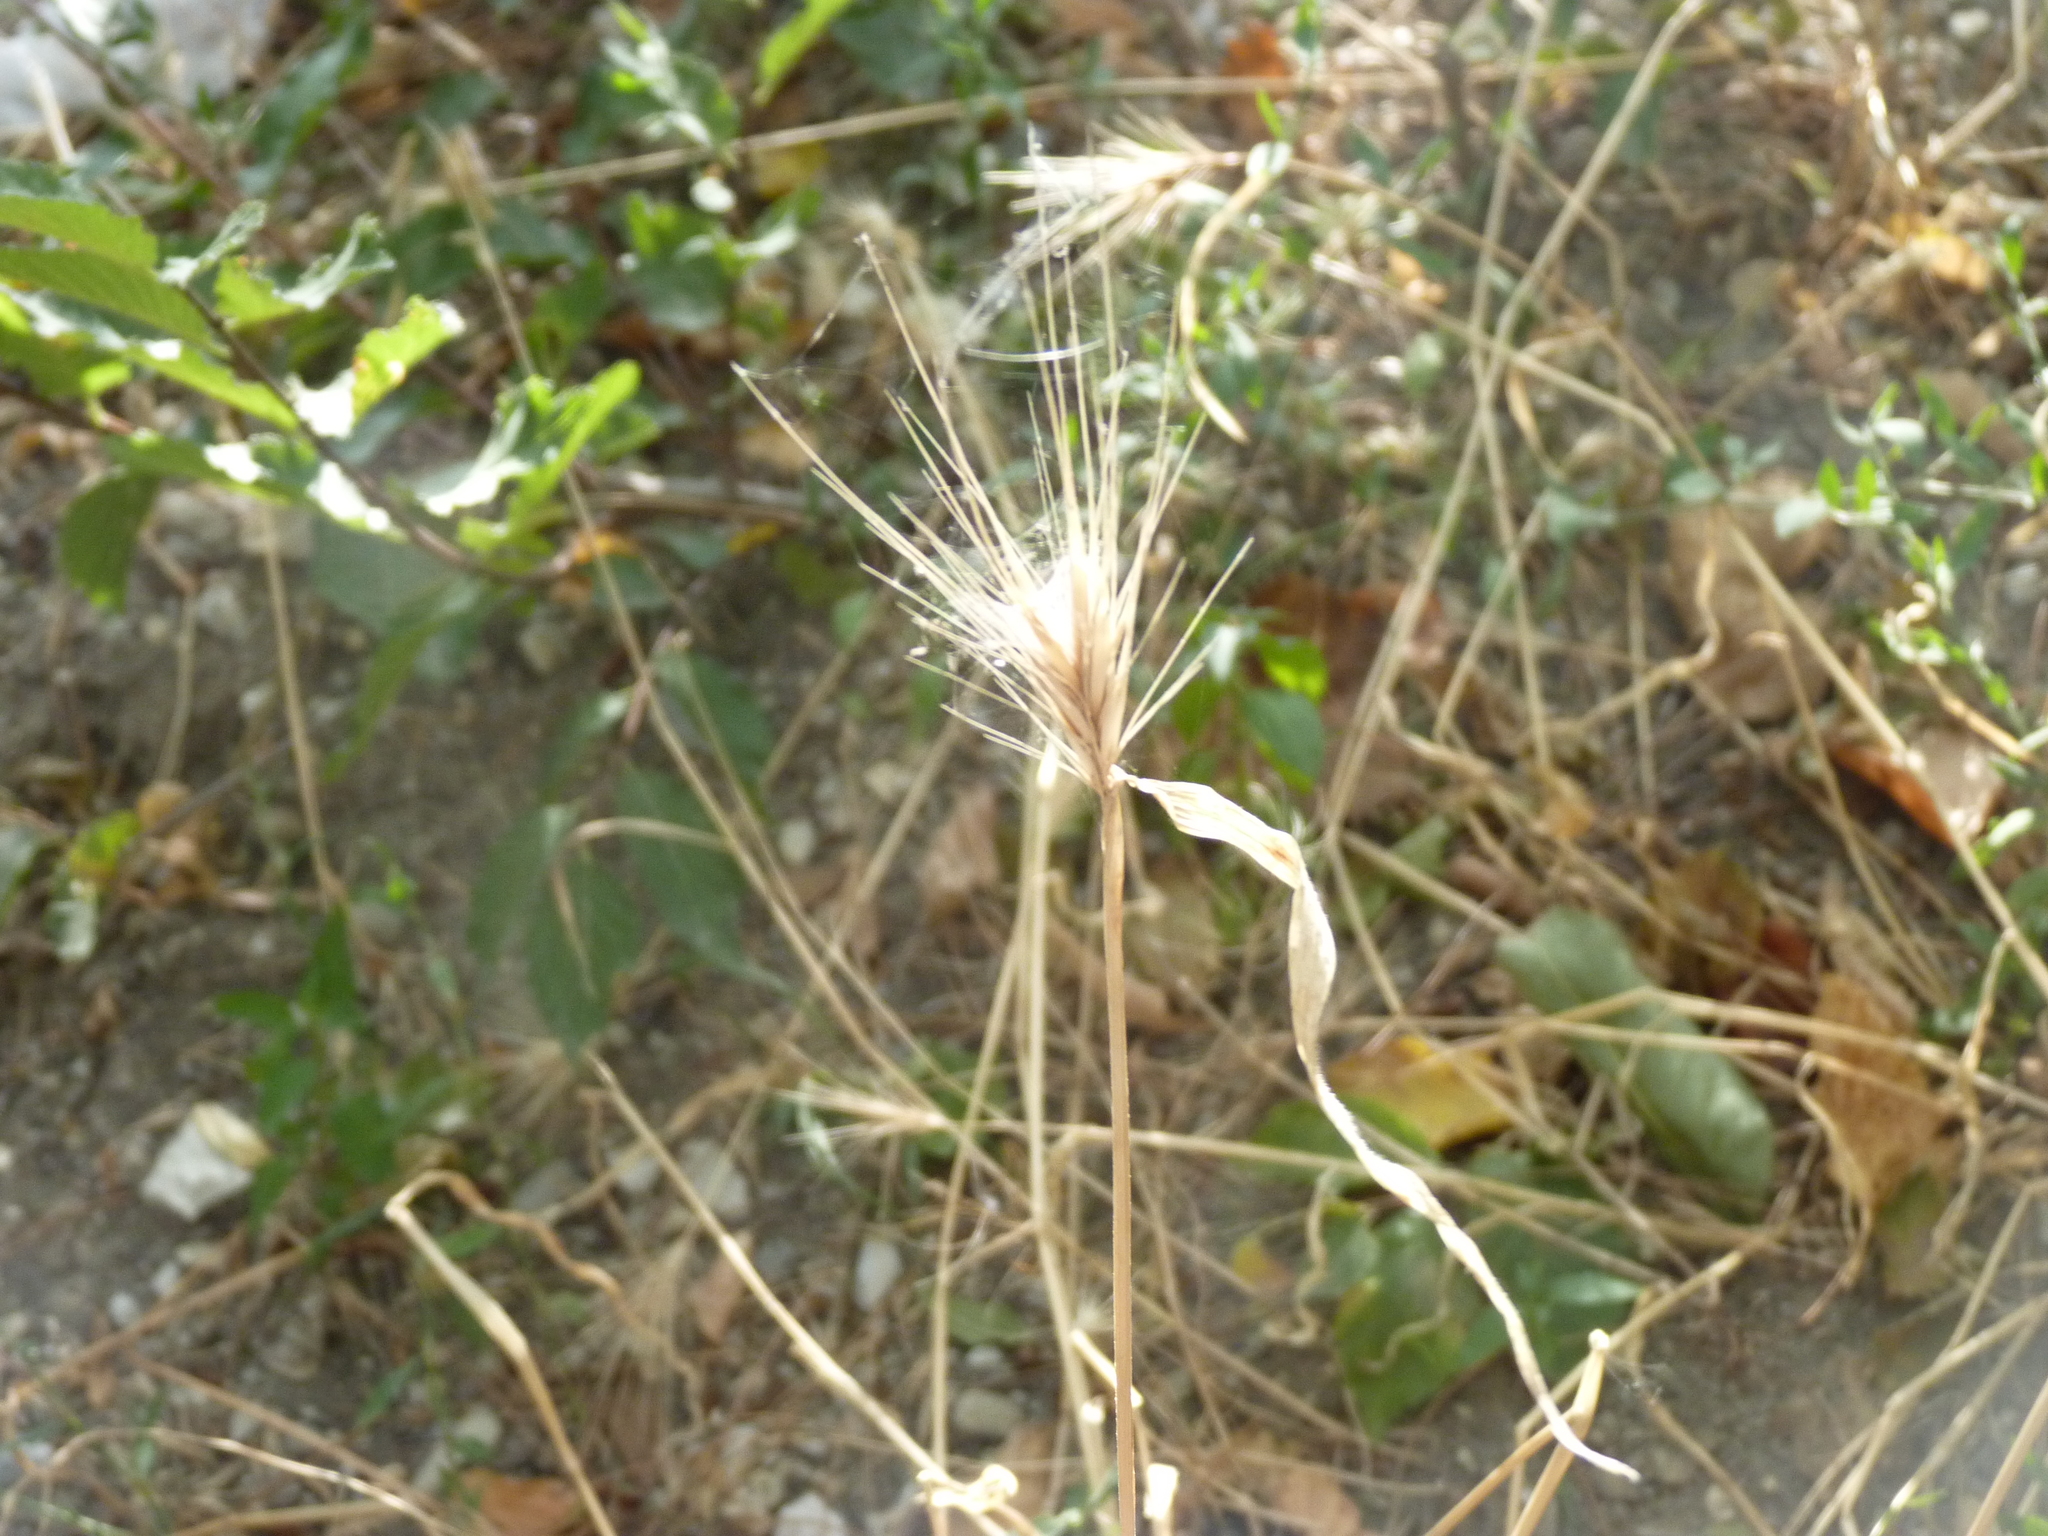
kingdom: Plantae
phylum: Tracheophyta
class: Liliopsida
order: Poales
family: Poaceae
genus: Hordeum
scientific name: Hordeum murinum
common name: Wall barley
